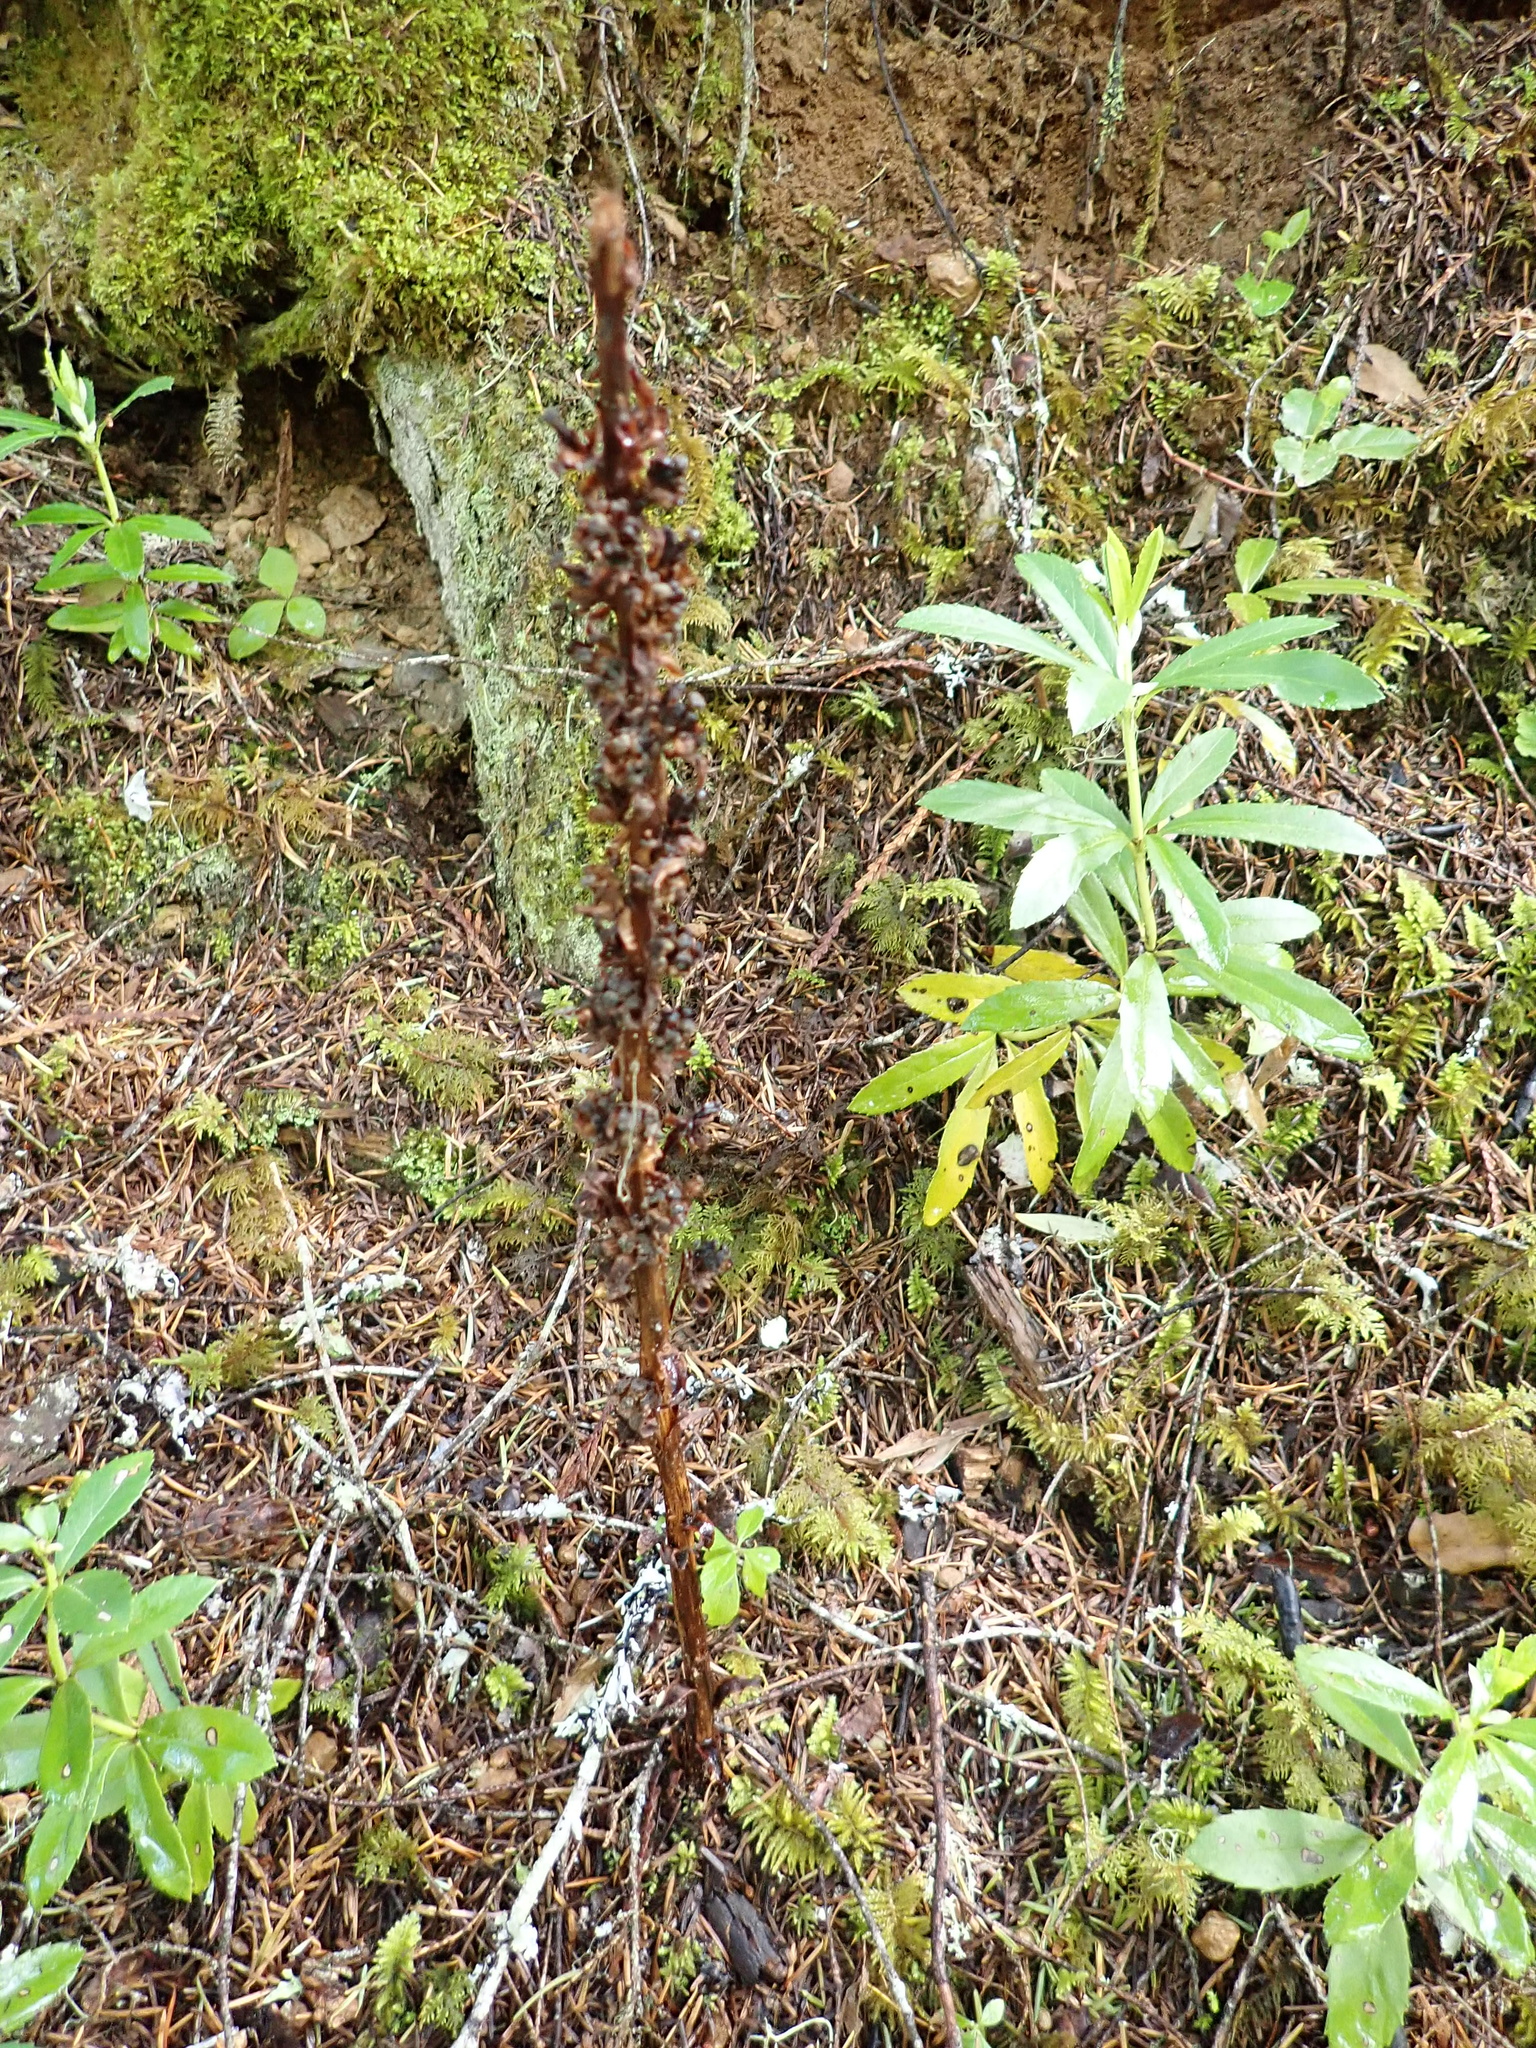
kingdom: Plantae
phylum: Tracheophyta
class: Magnoliopsida
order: Ericales
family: Ericaceae
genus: Allotropa
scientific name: Allotropa virgata
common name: Candy-striped allotropa
